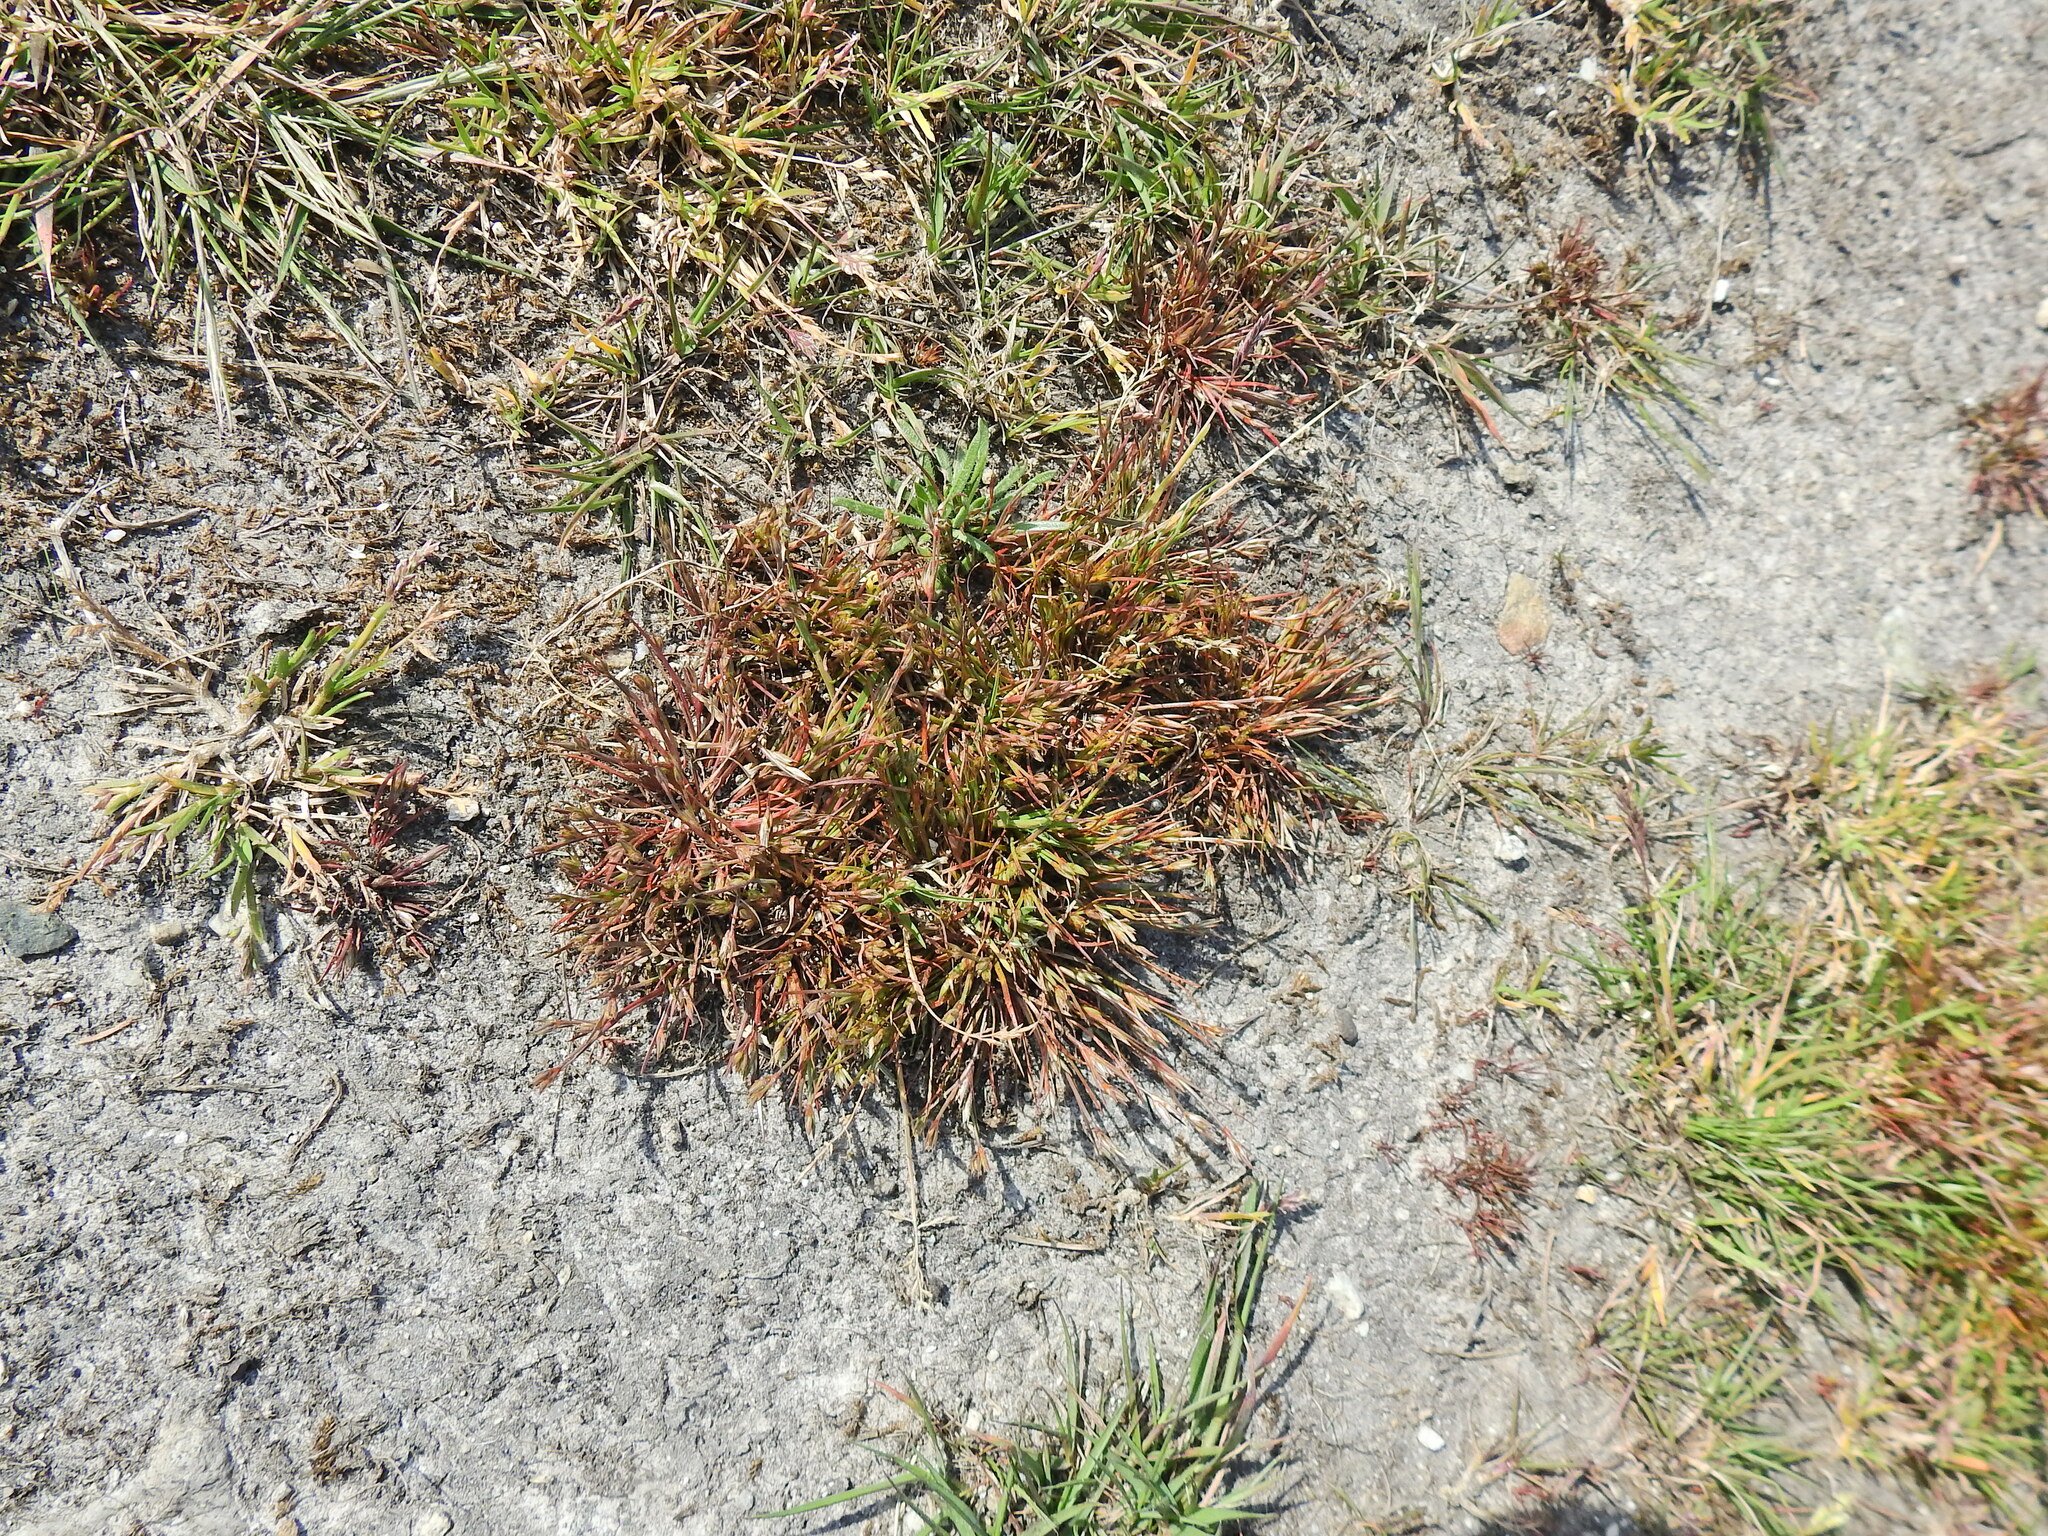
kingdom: Plantae
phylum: Tracheophyta
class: Liliopsida
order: Poales
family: Juncaceae
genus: Juncus
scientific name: Juncus bufonius
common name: Toad rush
